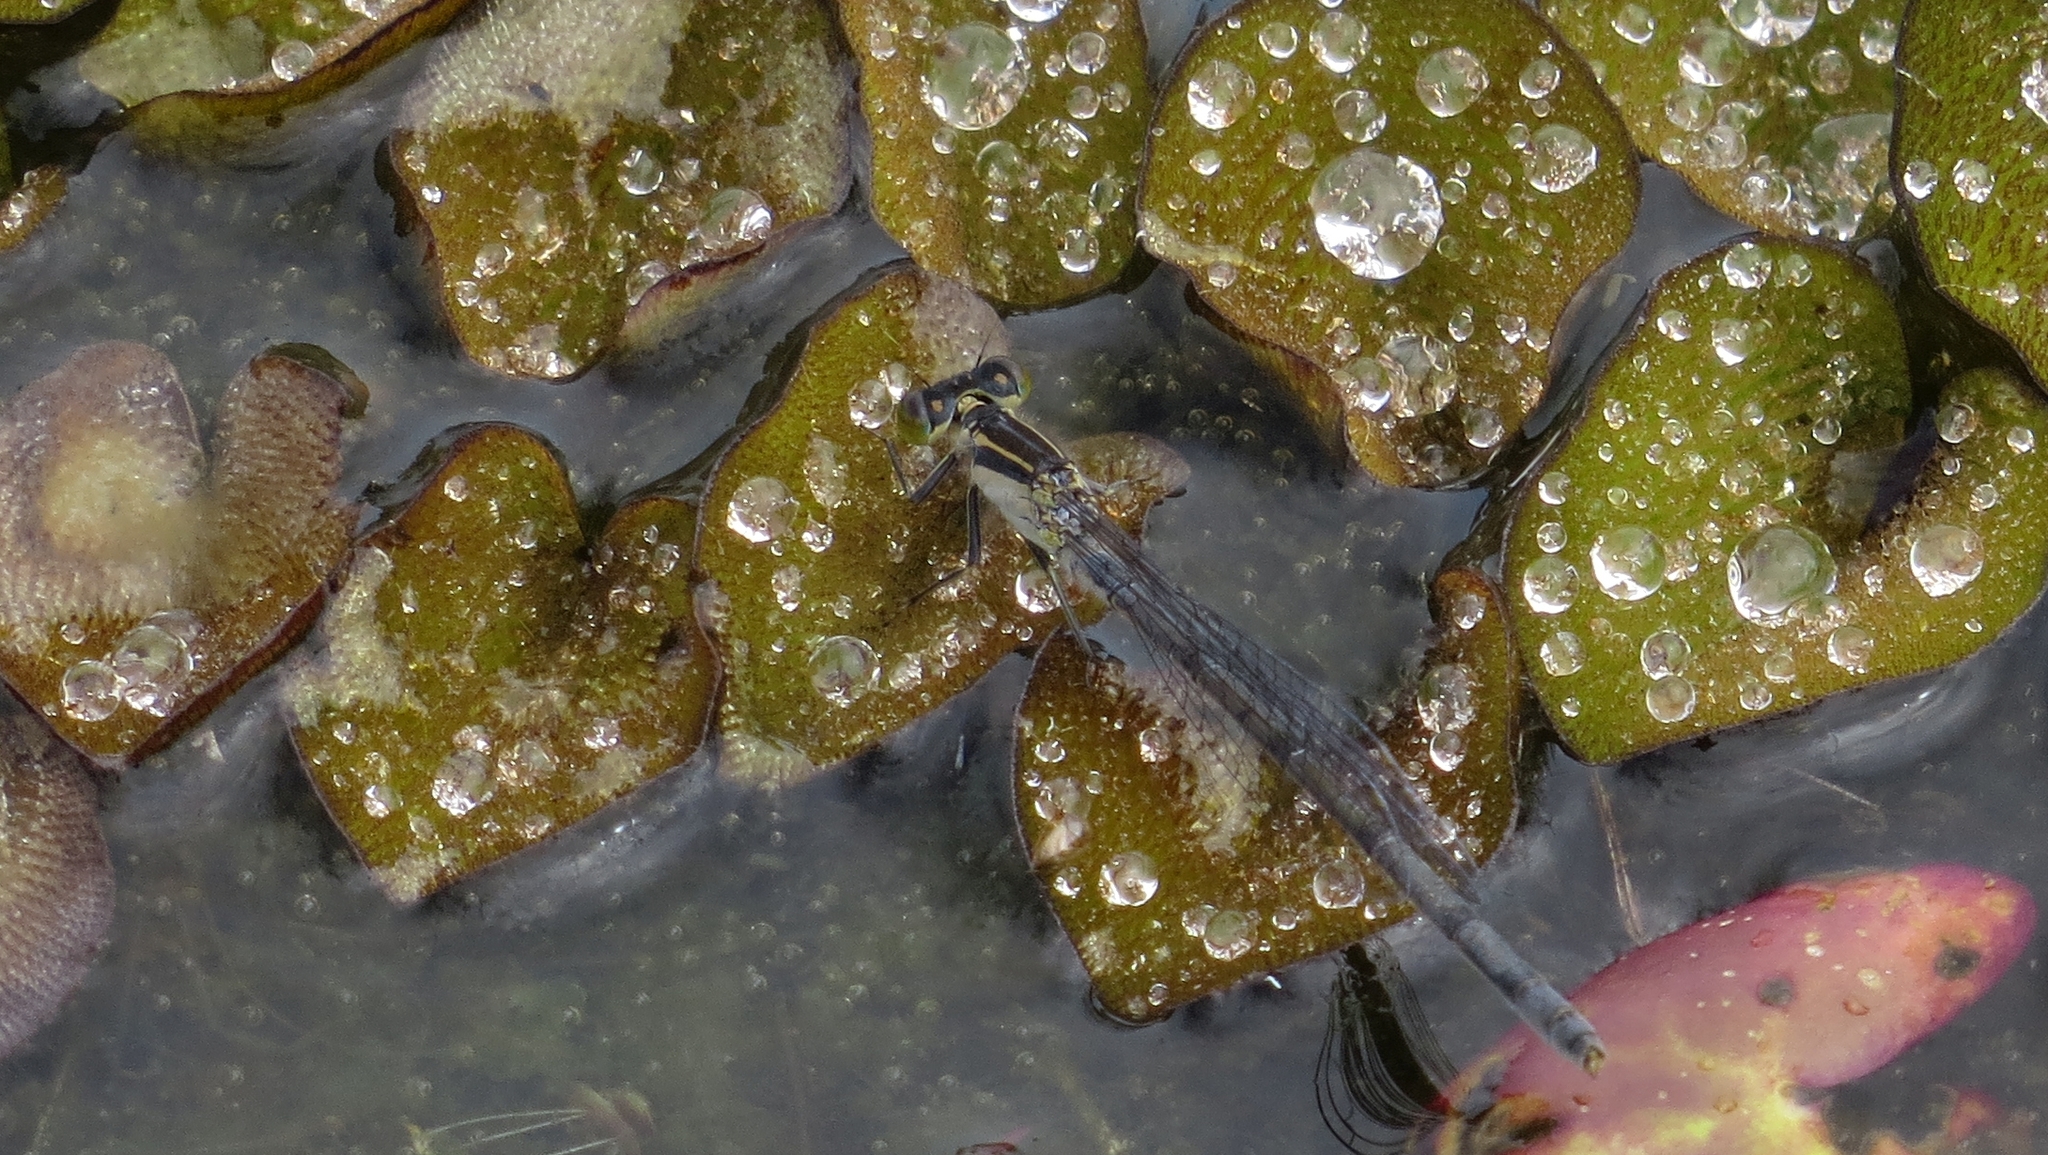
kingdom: Animalia
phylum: Arthropoda
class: Insecta
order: Odonata
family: Coenagrionidae
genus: Ischnura
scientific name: Ischnura heterosticta
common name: Common bluetail
